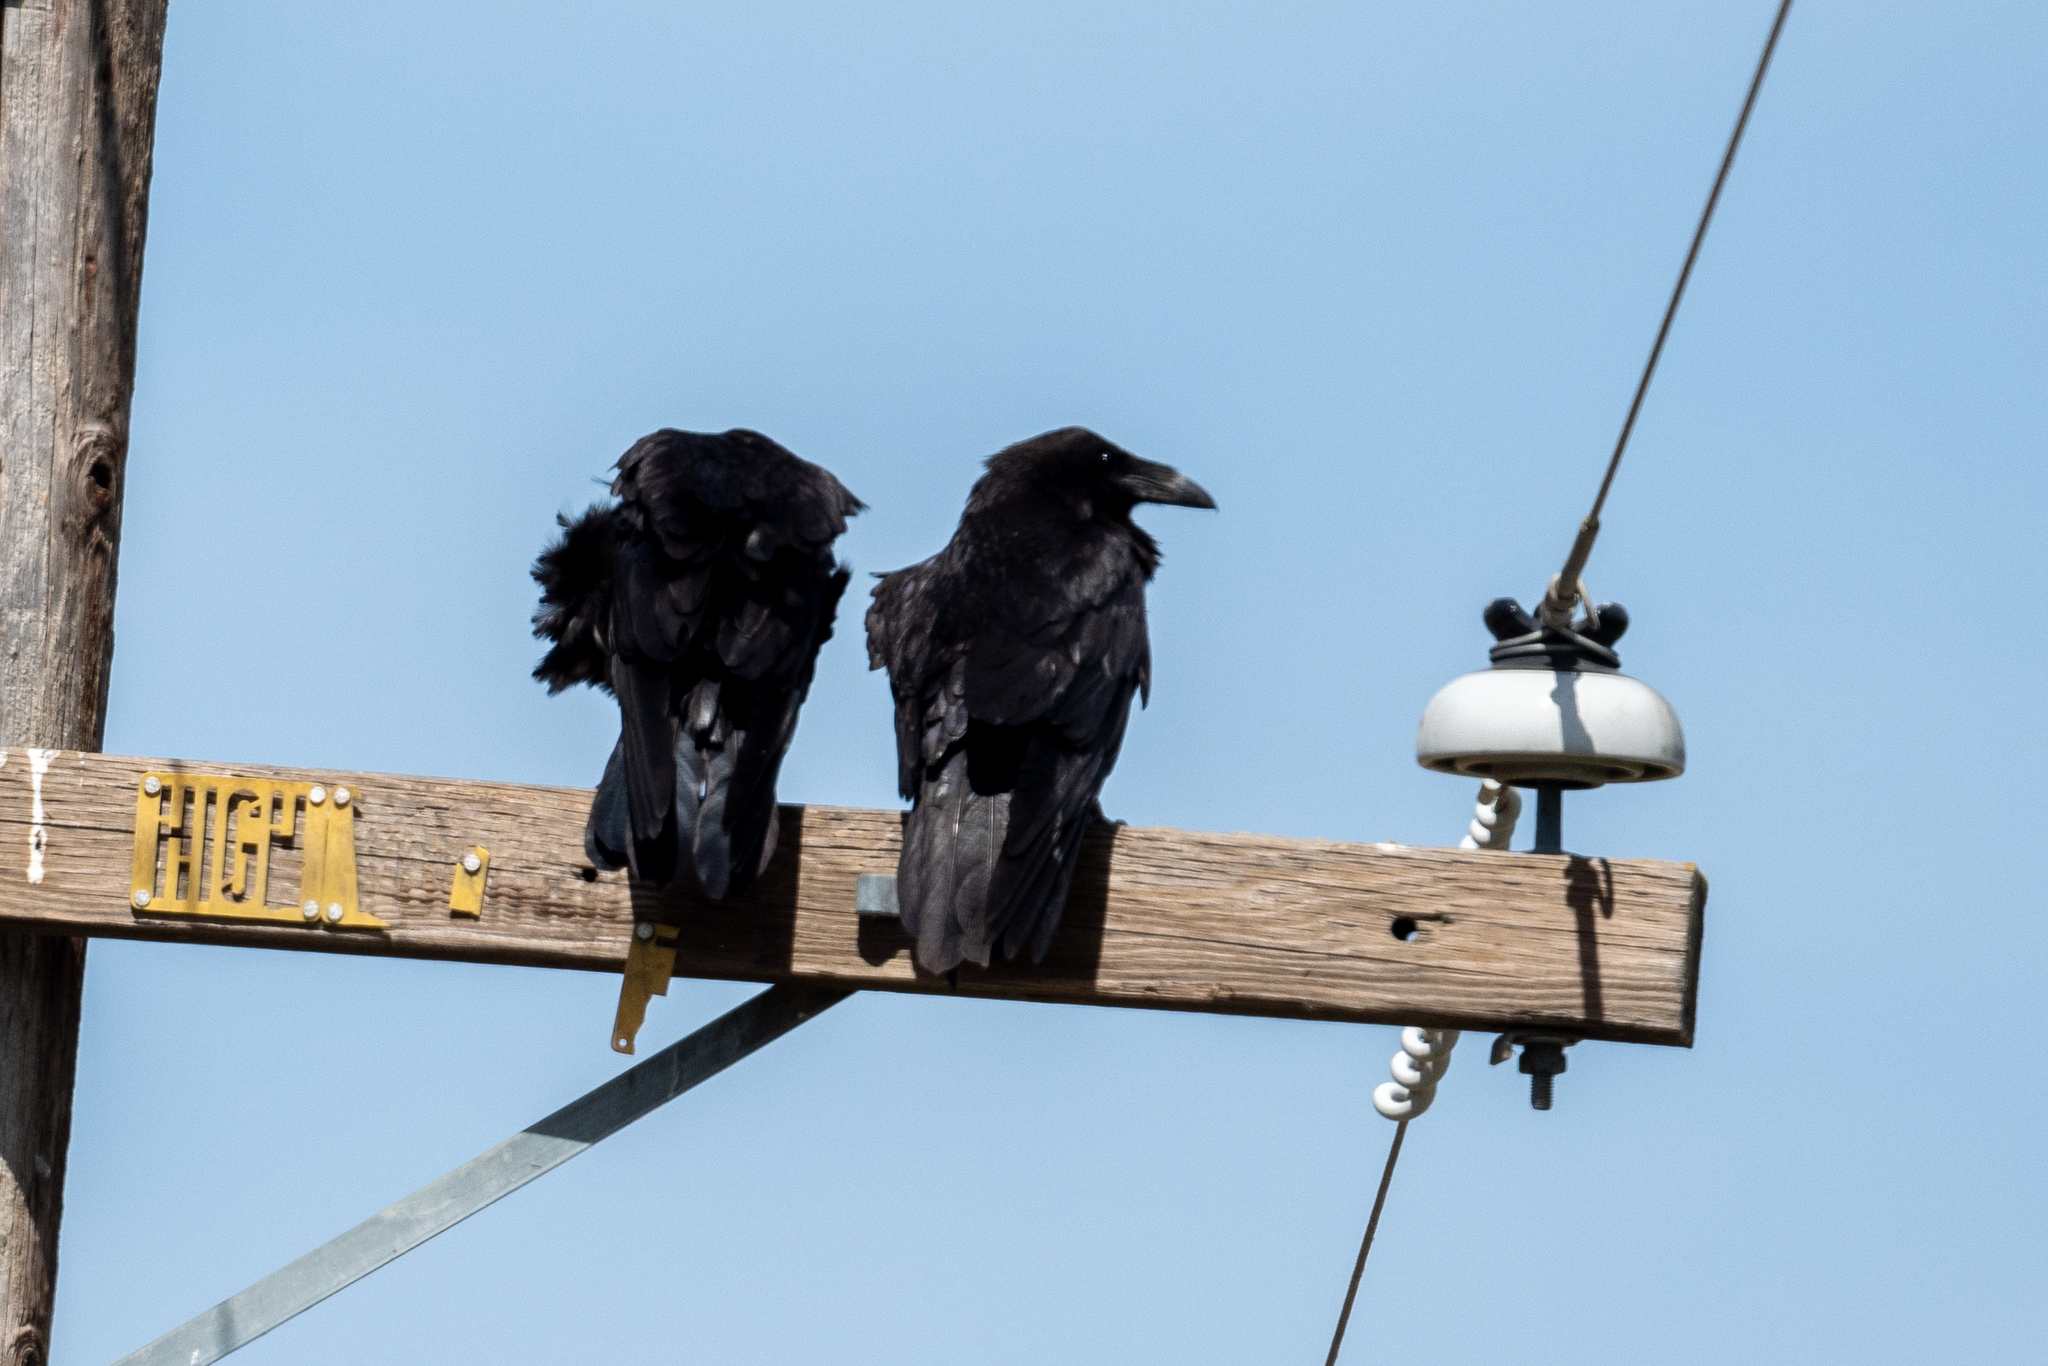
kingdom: Animalia
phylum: Chordata
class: Aves
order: Passeriformes
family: Corvidae
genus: Corvus
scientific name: Corvus corax
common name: Common raven
